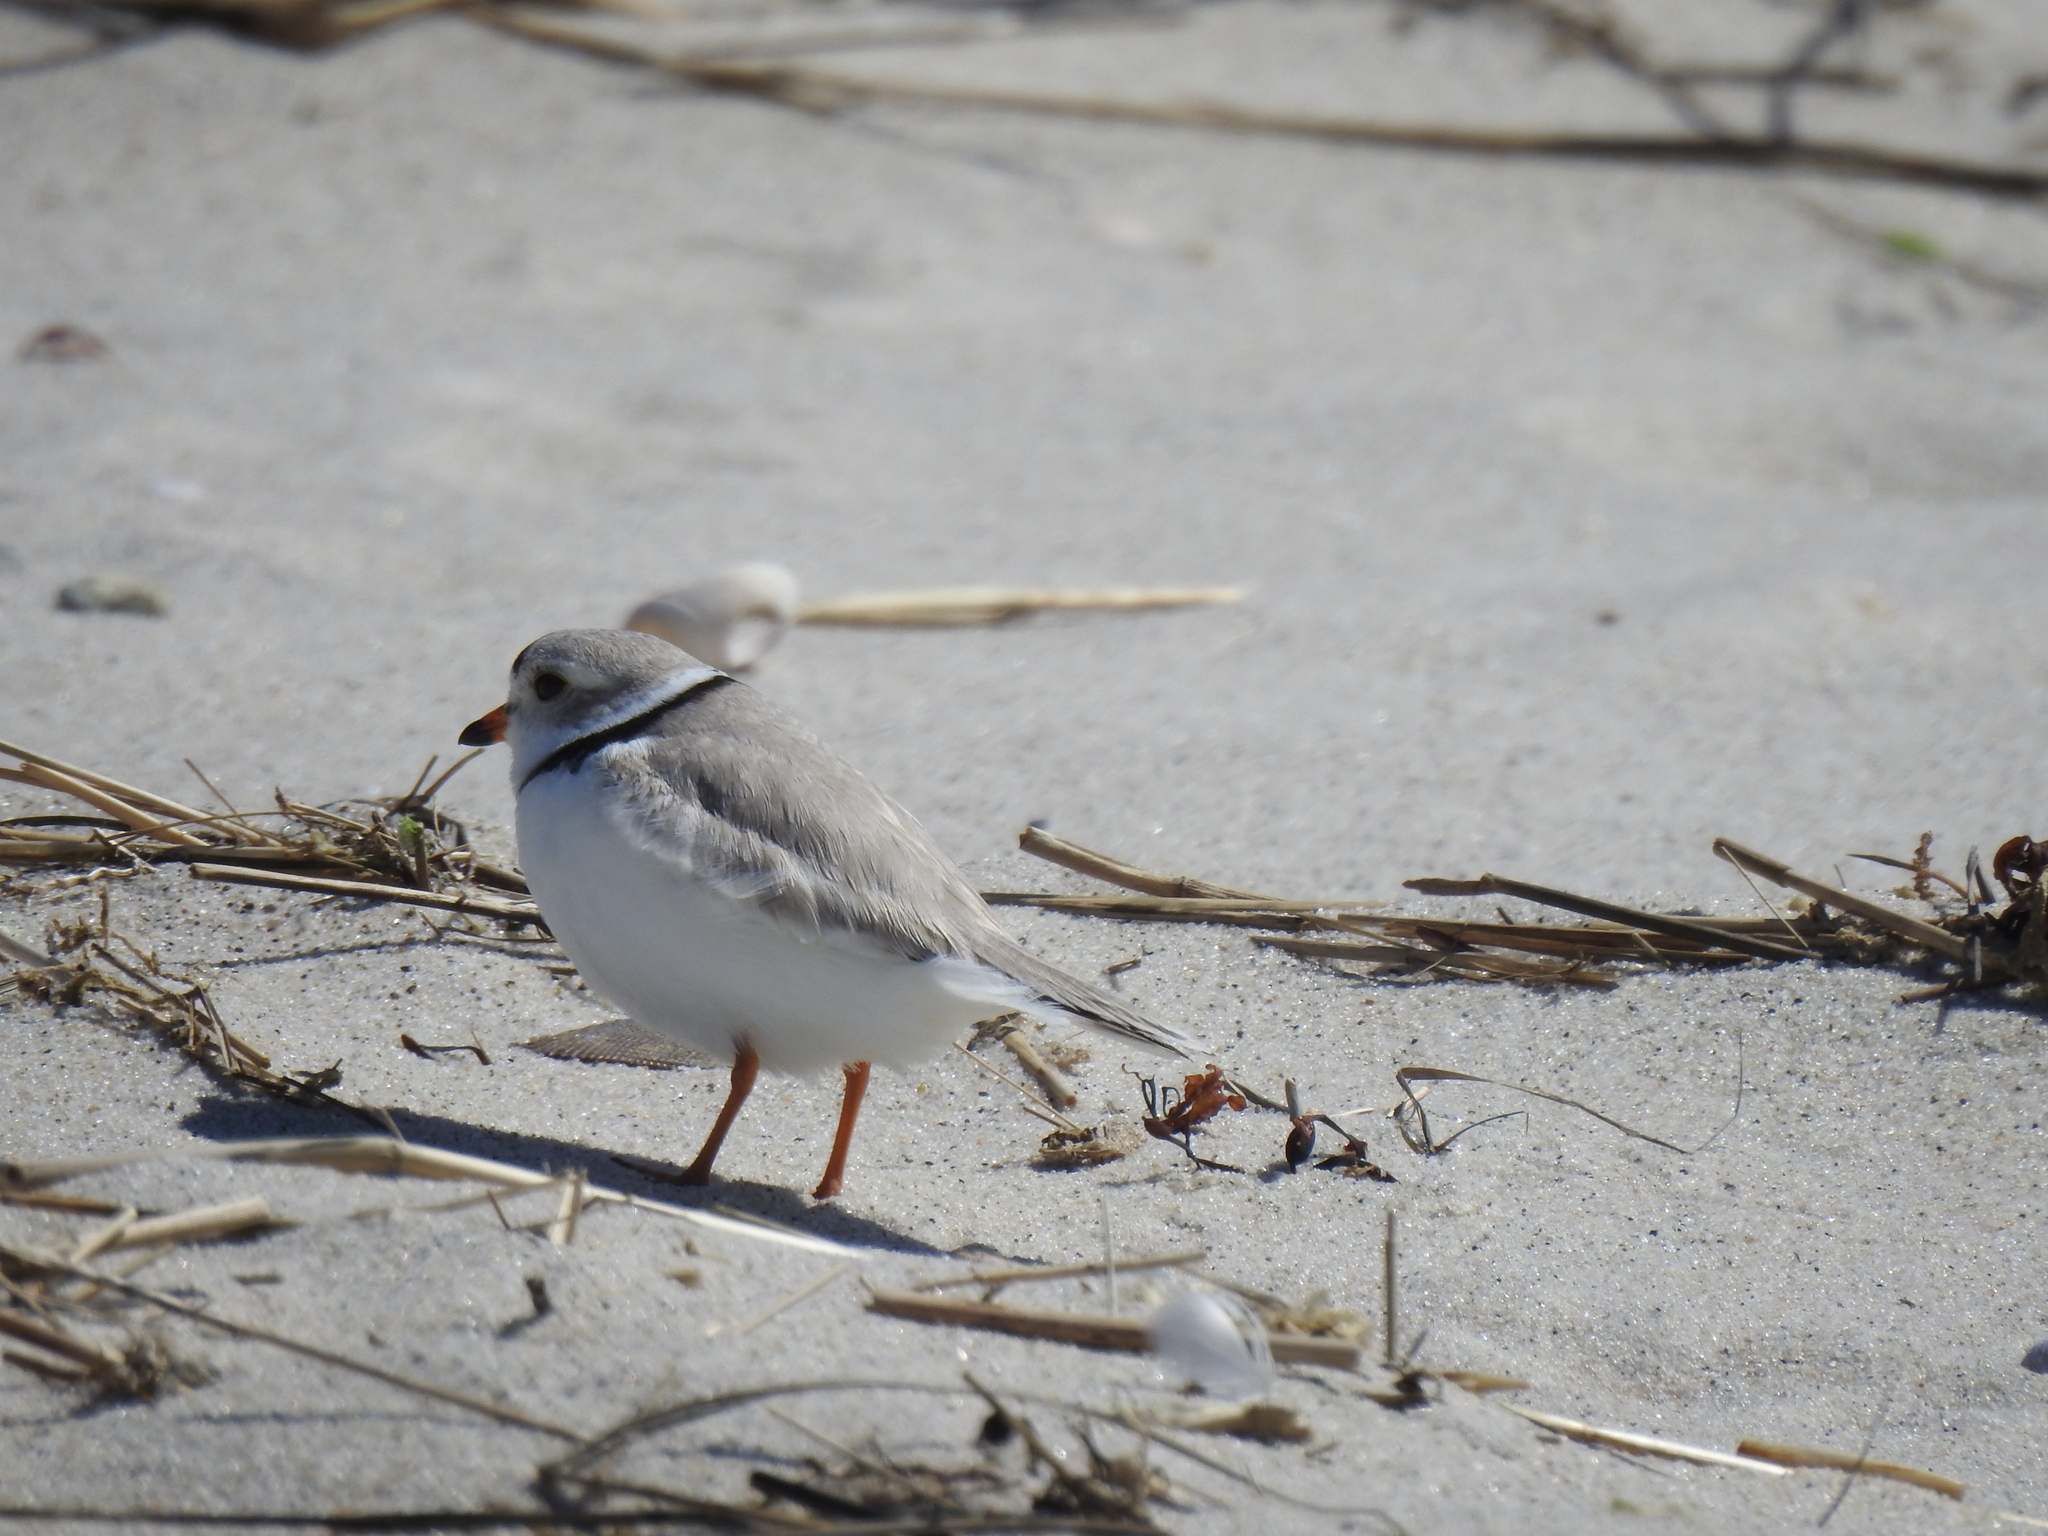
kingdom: Animalia
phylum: Chordata
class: Aves
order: Charadriiformes
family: Charadriidae
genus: Charadrius
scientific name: Charadrius melodus
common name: Piping plover
